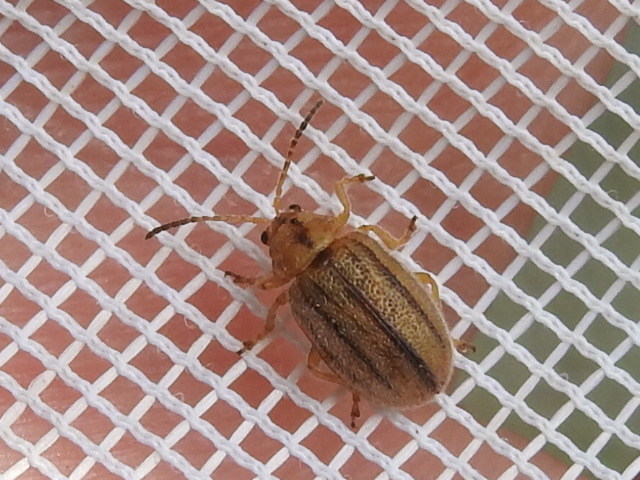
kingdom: Animalia
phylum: Arthropoda
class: Insecta
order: Coleoptera
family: Chrysomelidae
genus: Ophraella
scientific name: Ophraella americana
